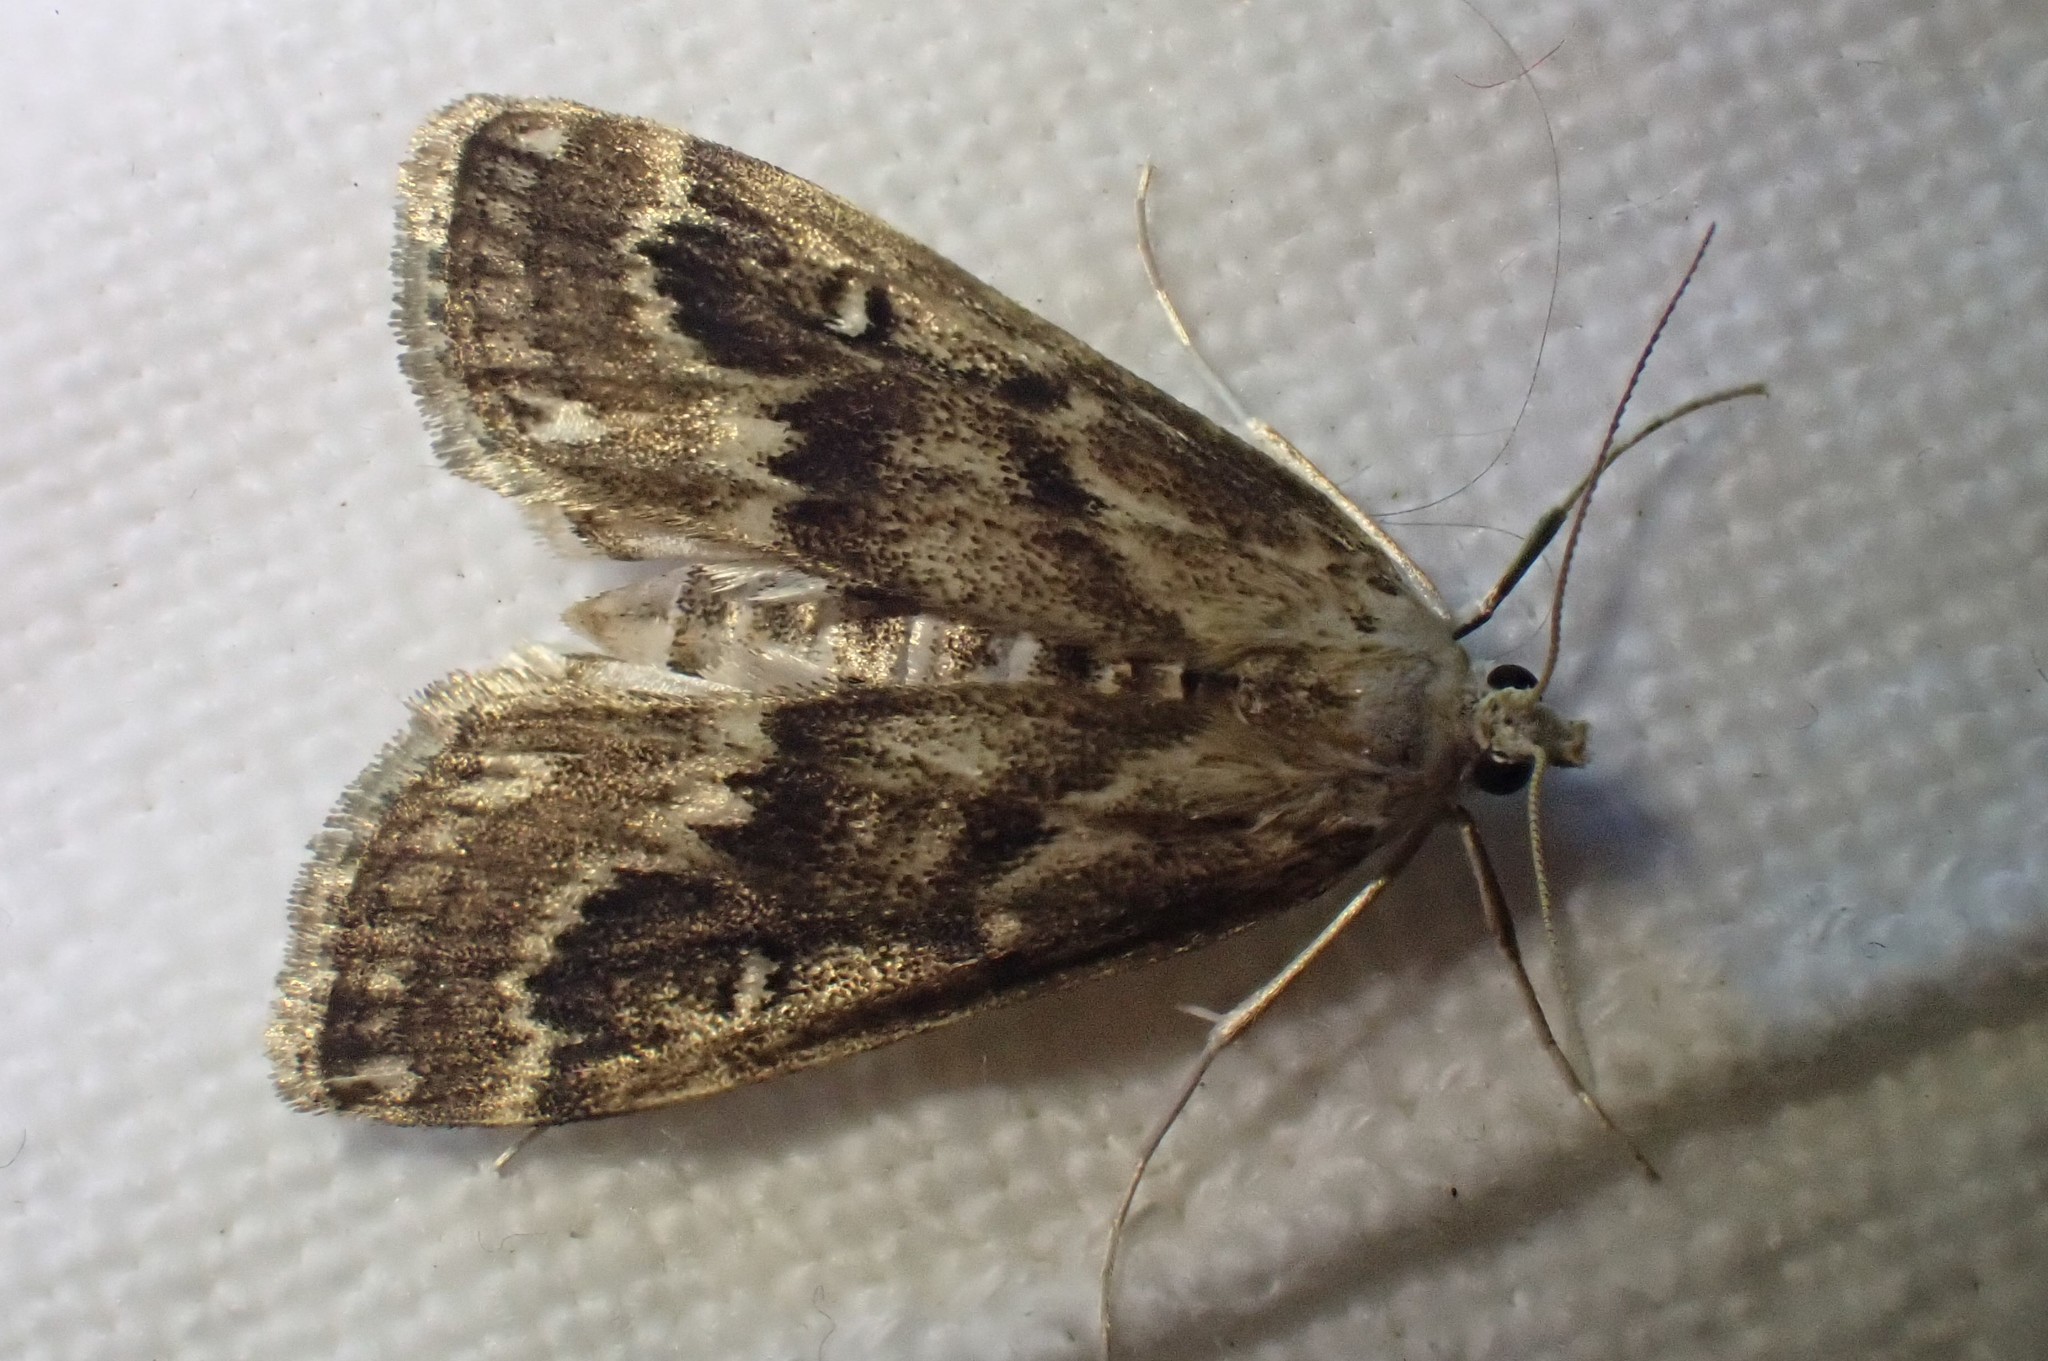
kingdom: Animalia
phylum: Arthropoda
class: Insecta
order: Lepidoptera
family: Crambidae
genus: Parapoynx
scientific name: Parapoynx stratiotata
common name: Ringed china-mark
